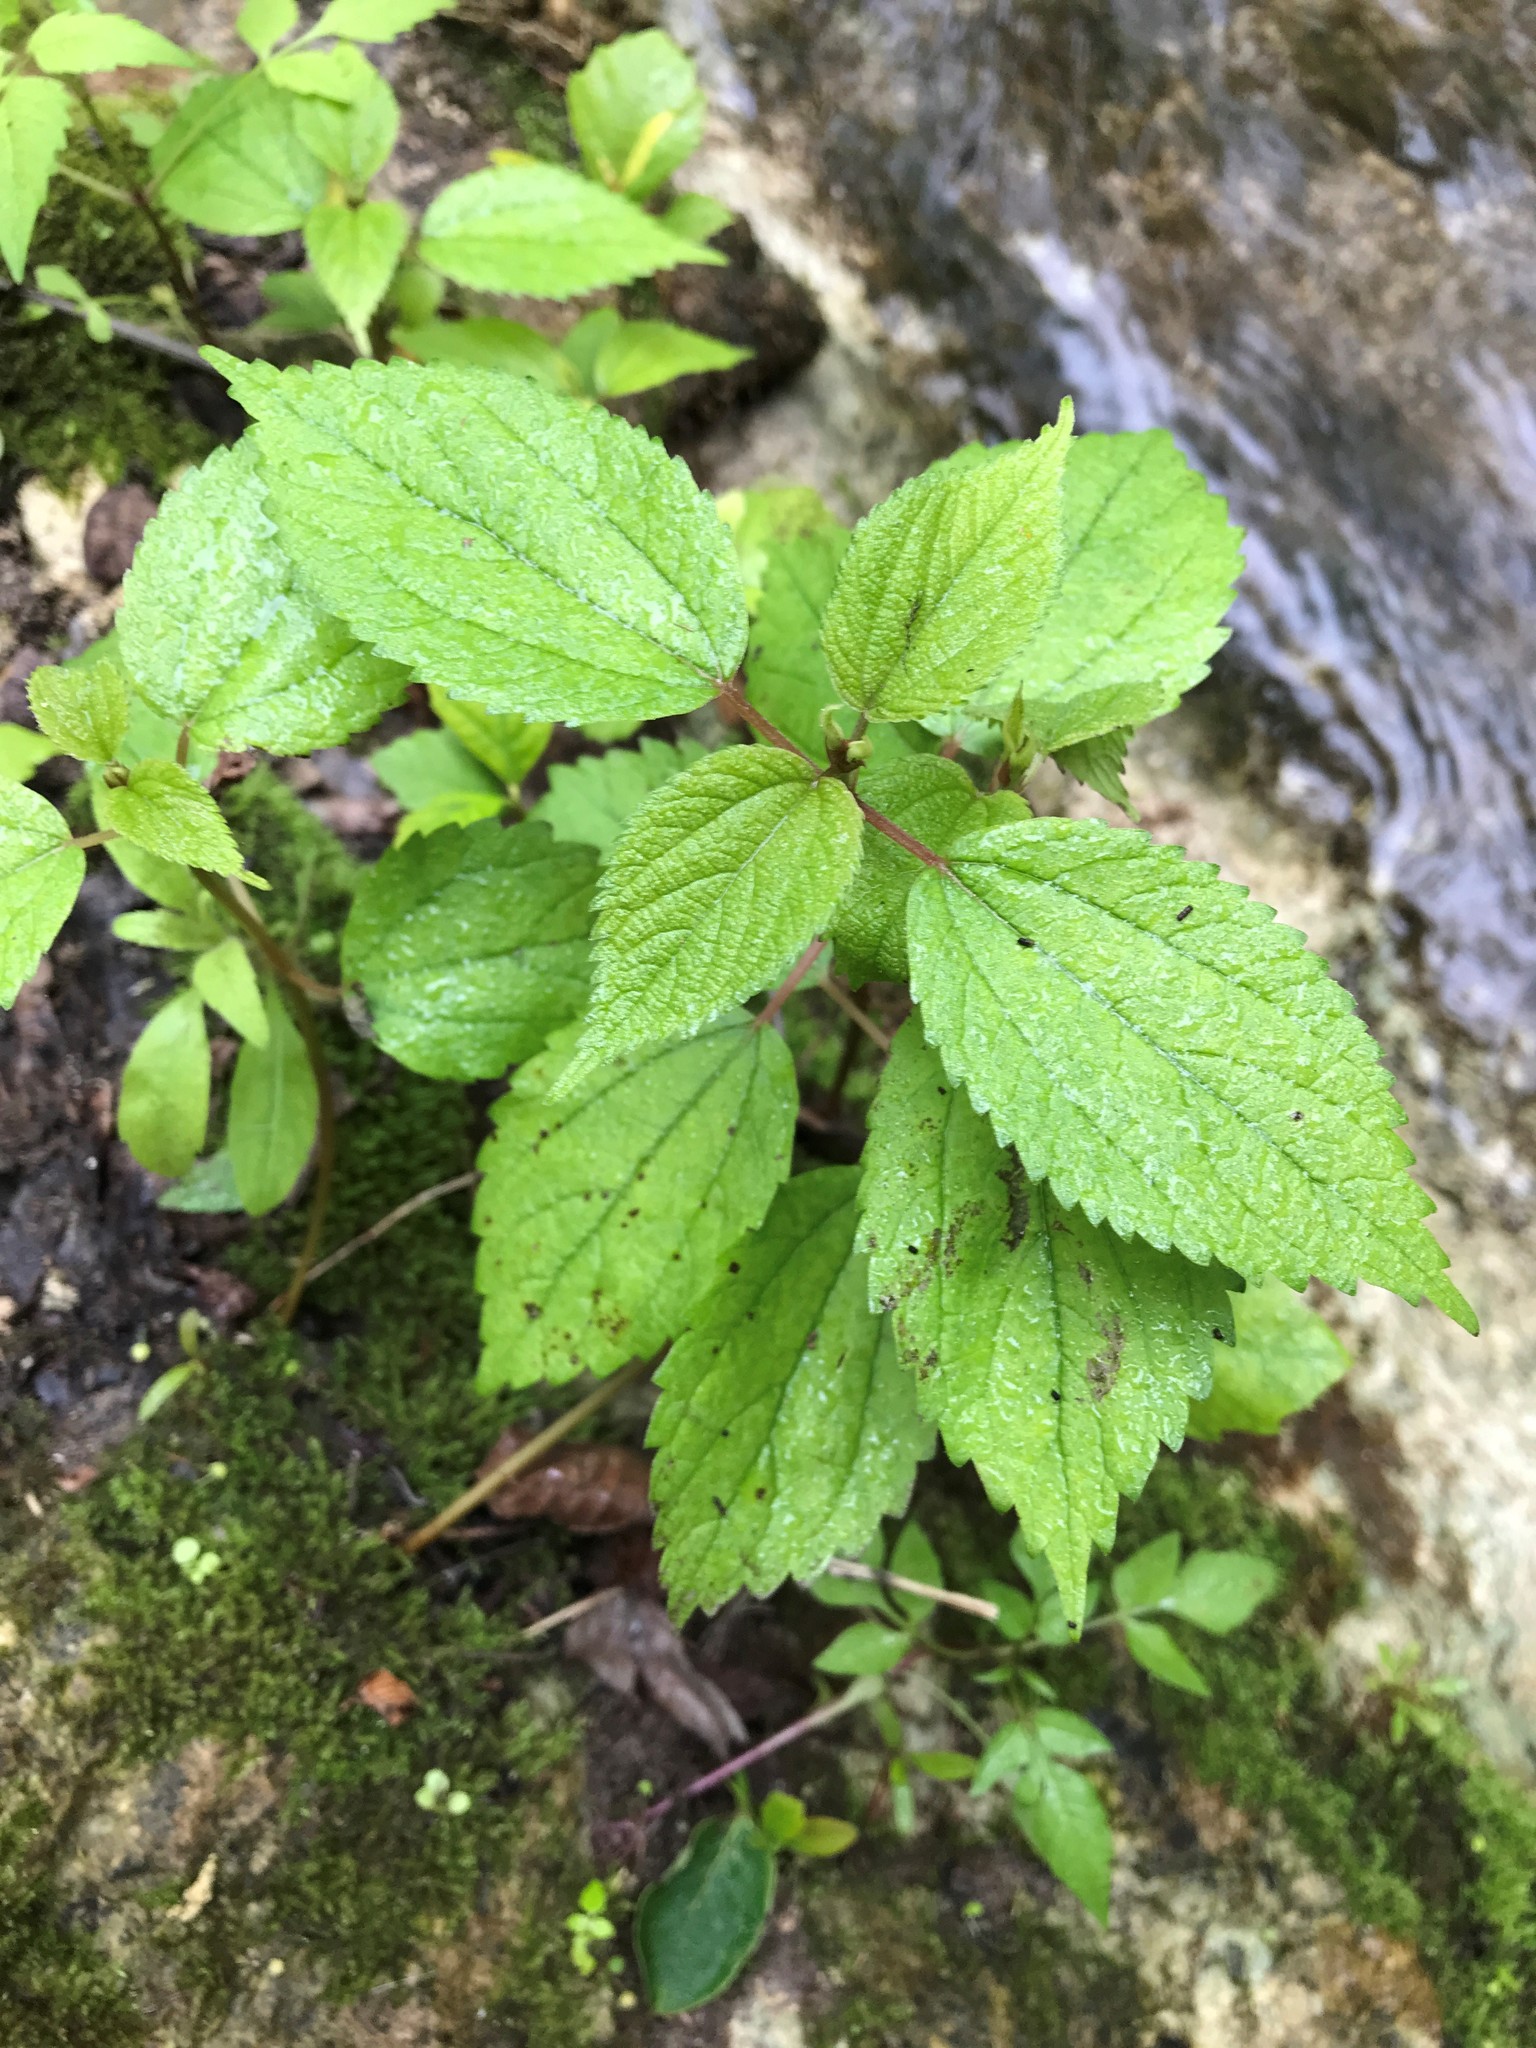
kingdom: Plantae
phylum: Tracheophyta
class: Magnoliopsida
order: Rosales
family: Urticaceae
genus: Boehmeria
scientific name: Boehmeria cylindrica
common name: Bog-hemp
